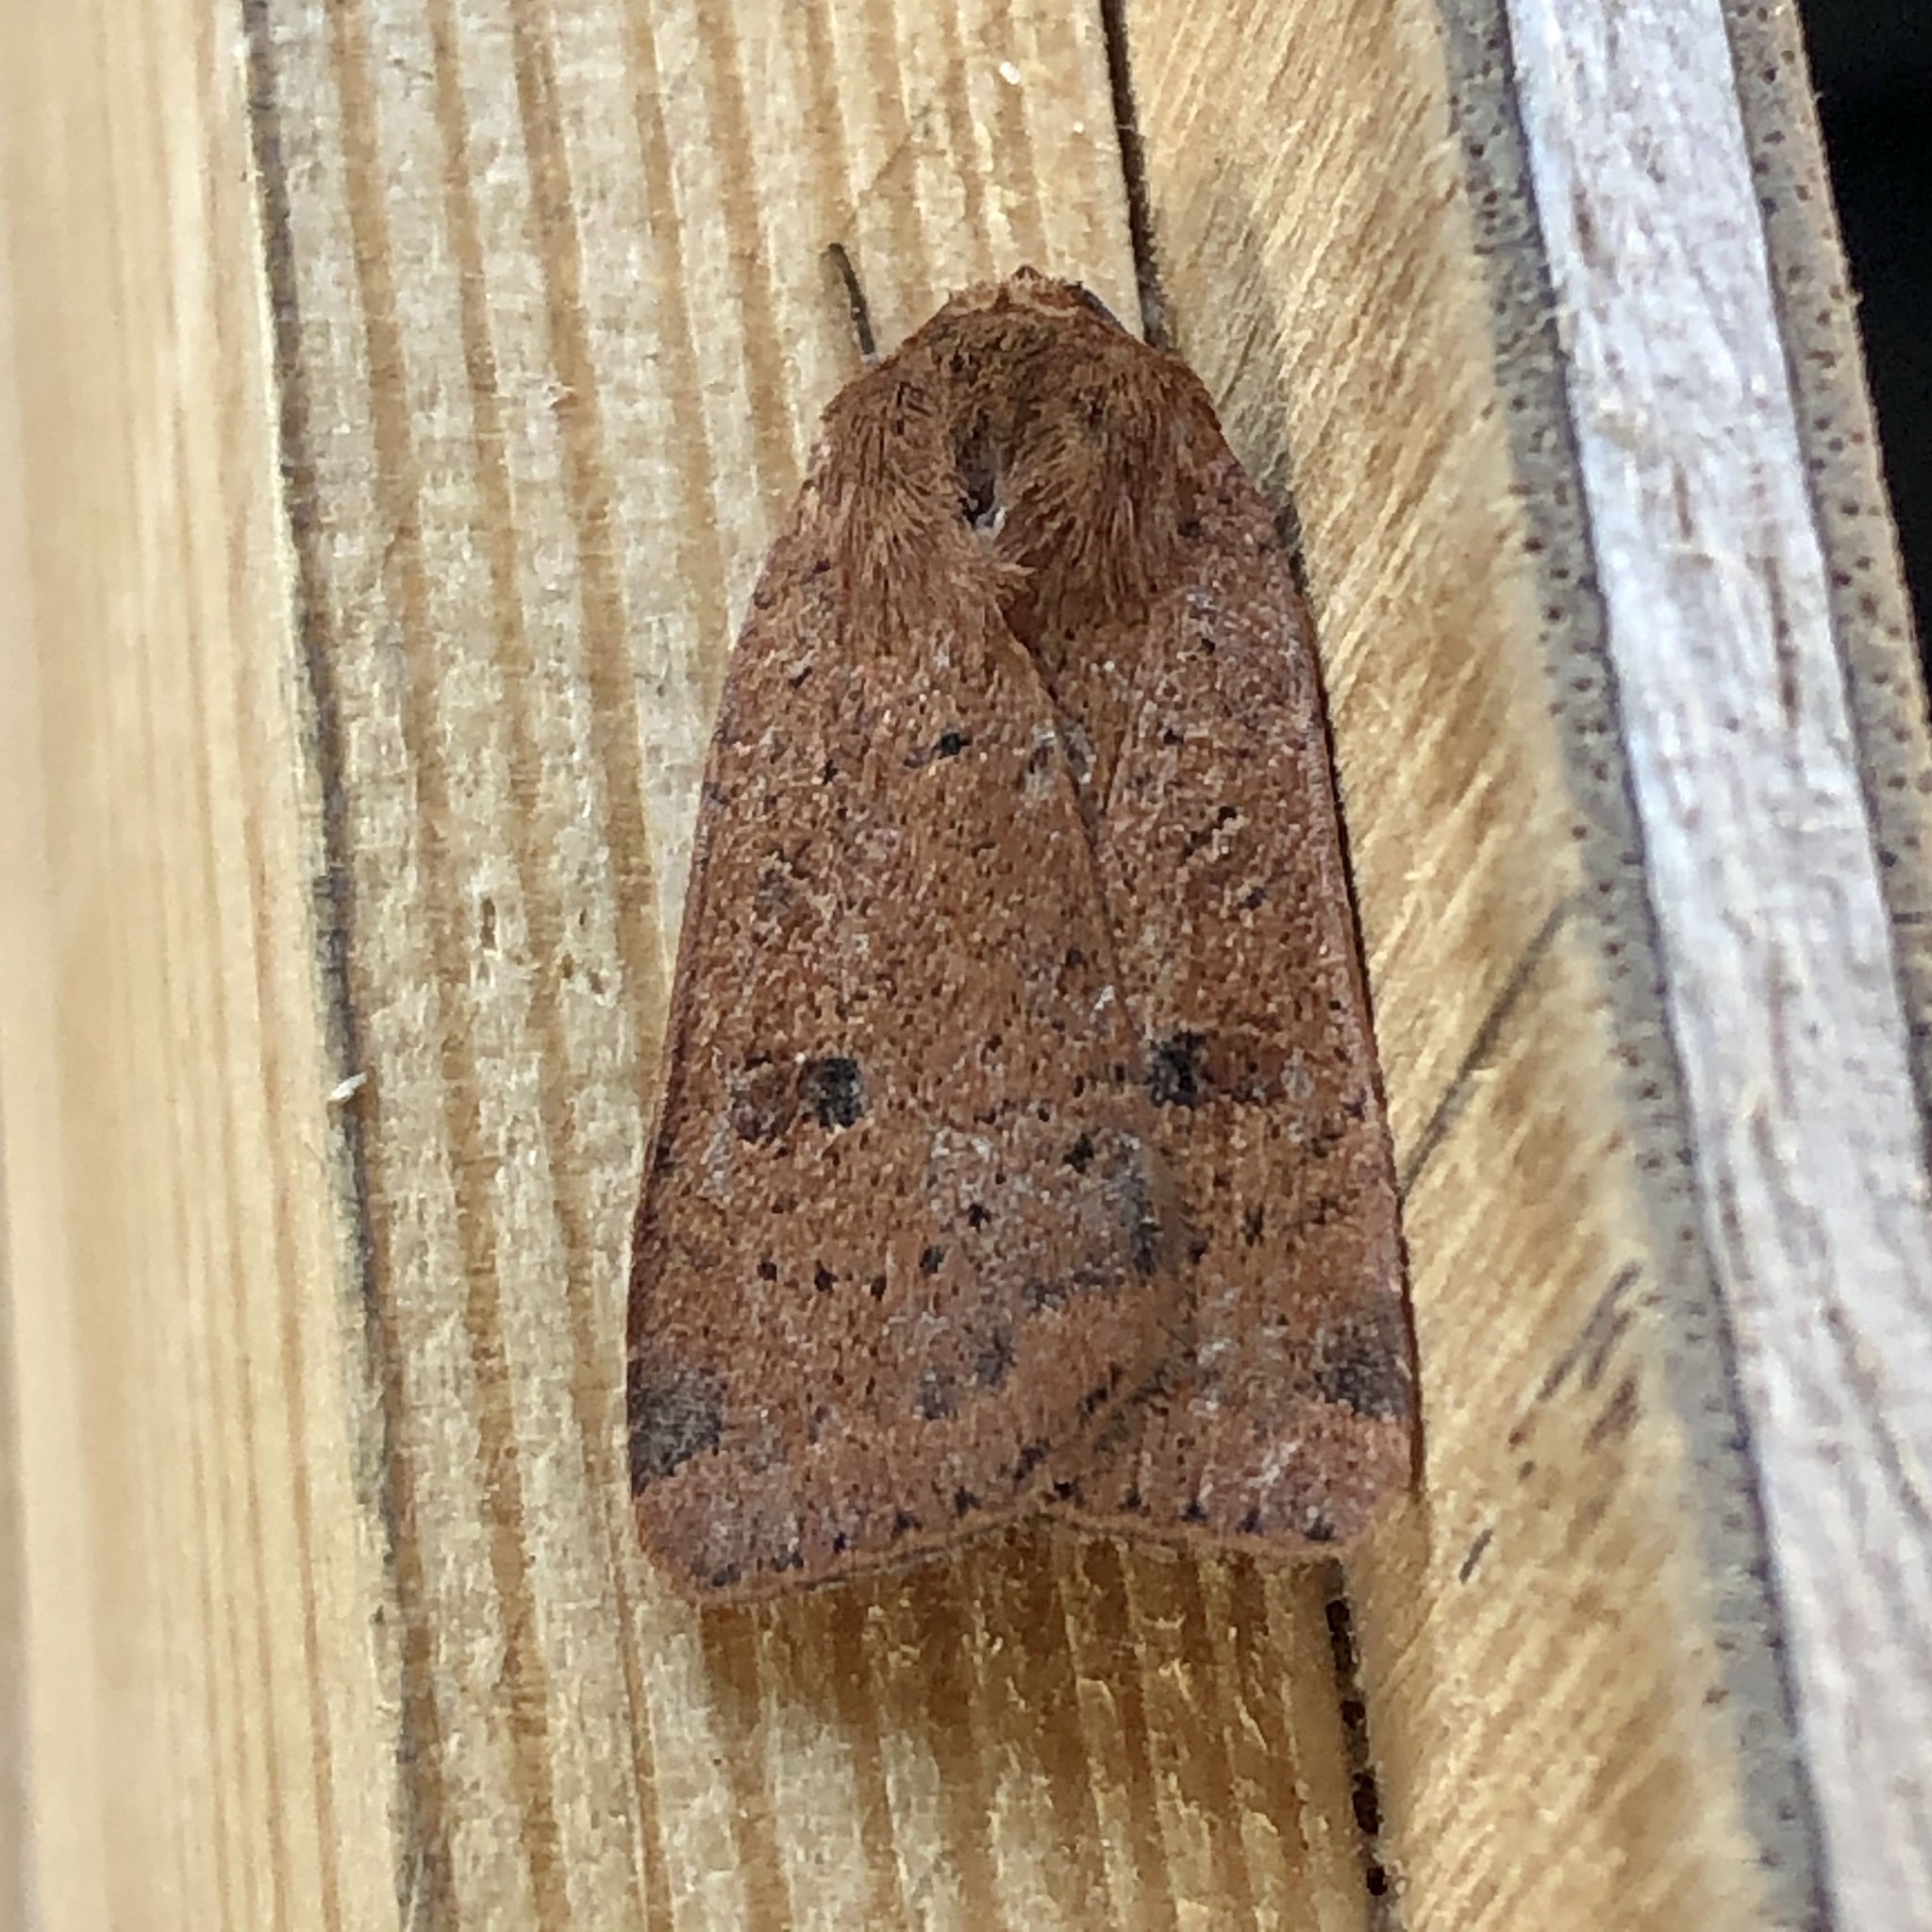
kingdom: Animalia
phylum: Arthropoda
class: Insecta
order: Lepidoptera
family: Noctuidae
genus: Noctua
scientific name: Noctua comes
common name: Lesser yellow underwing
